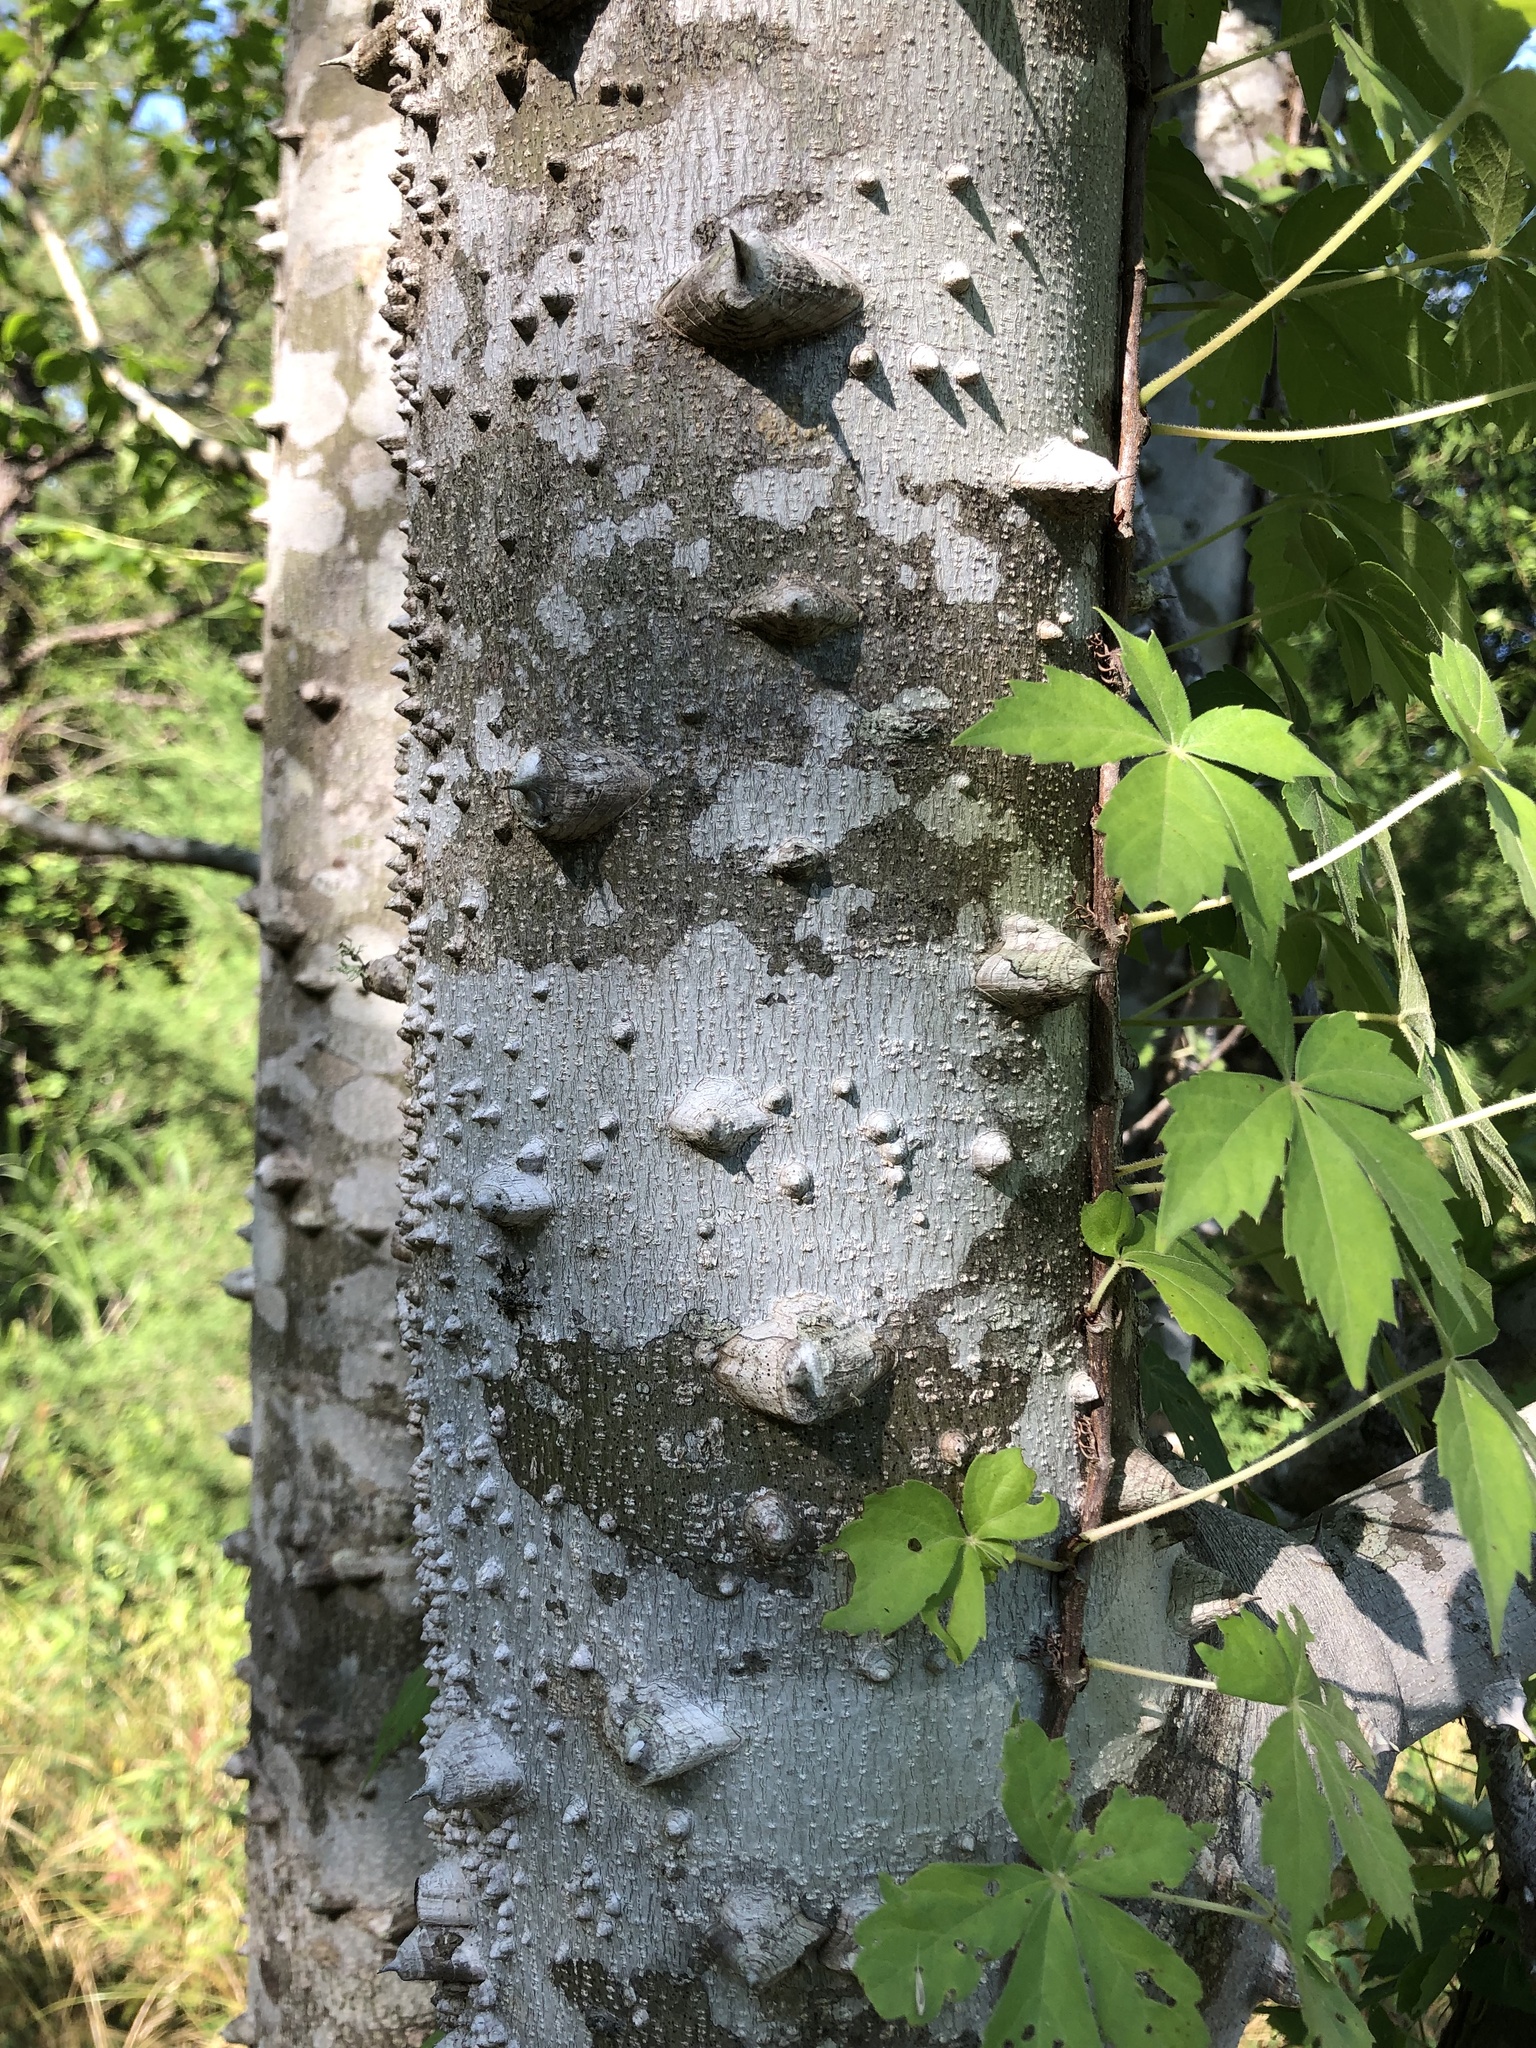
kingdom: Plantae
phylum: Tracheophyta
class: Magnoliopsida
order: Sapindales
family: Rutaceae
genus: Zanthoxylum
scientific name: Zanthoxylum clava-herculis
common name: Hercules'-club
